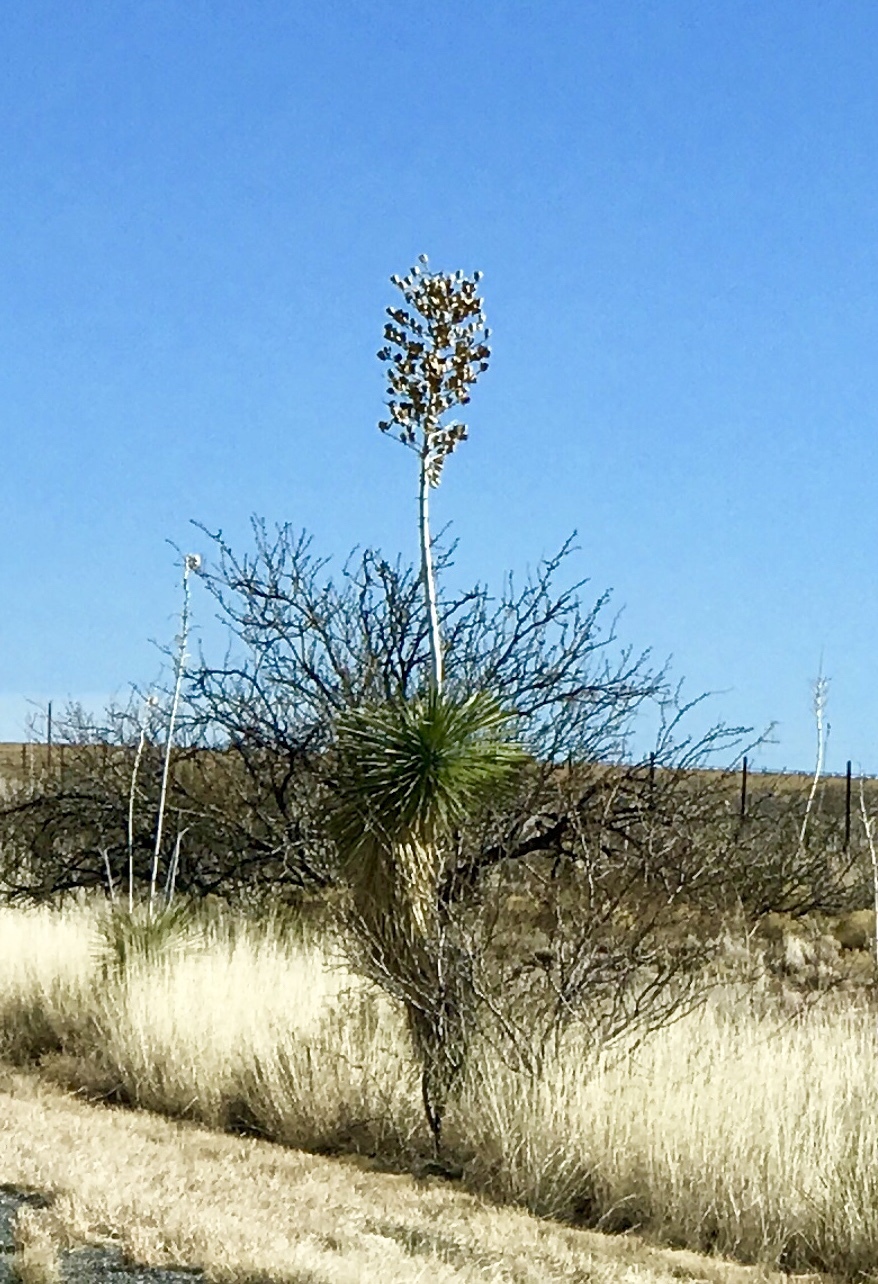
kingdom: Plantae
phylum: Tracheophyta
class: Liliopsida
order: Asparagales
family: Asparagaceae
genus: Yucca
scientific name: Yucca elata
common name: Palmella
